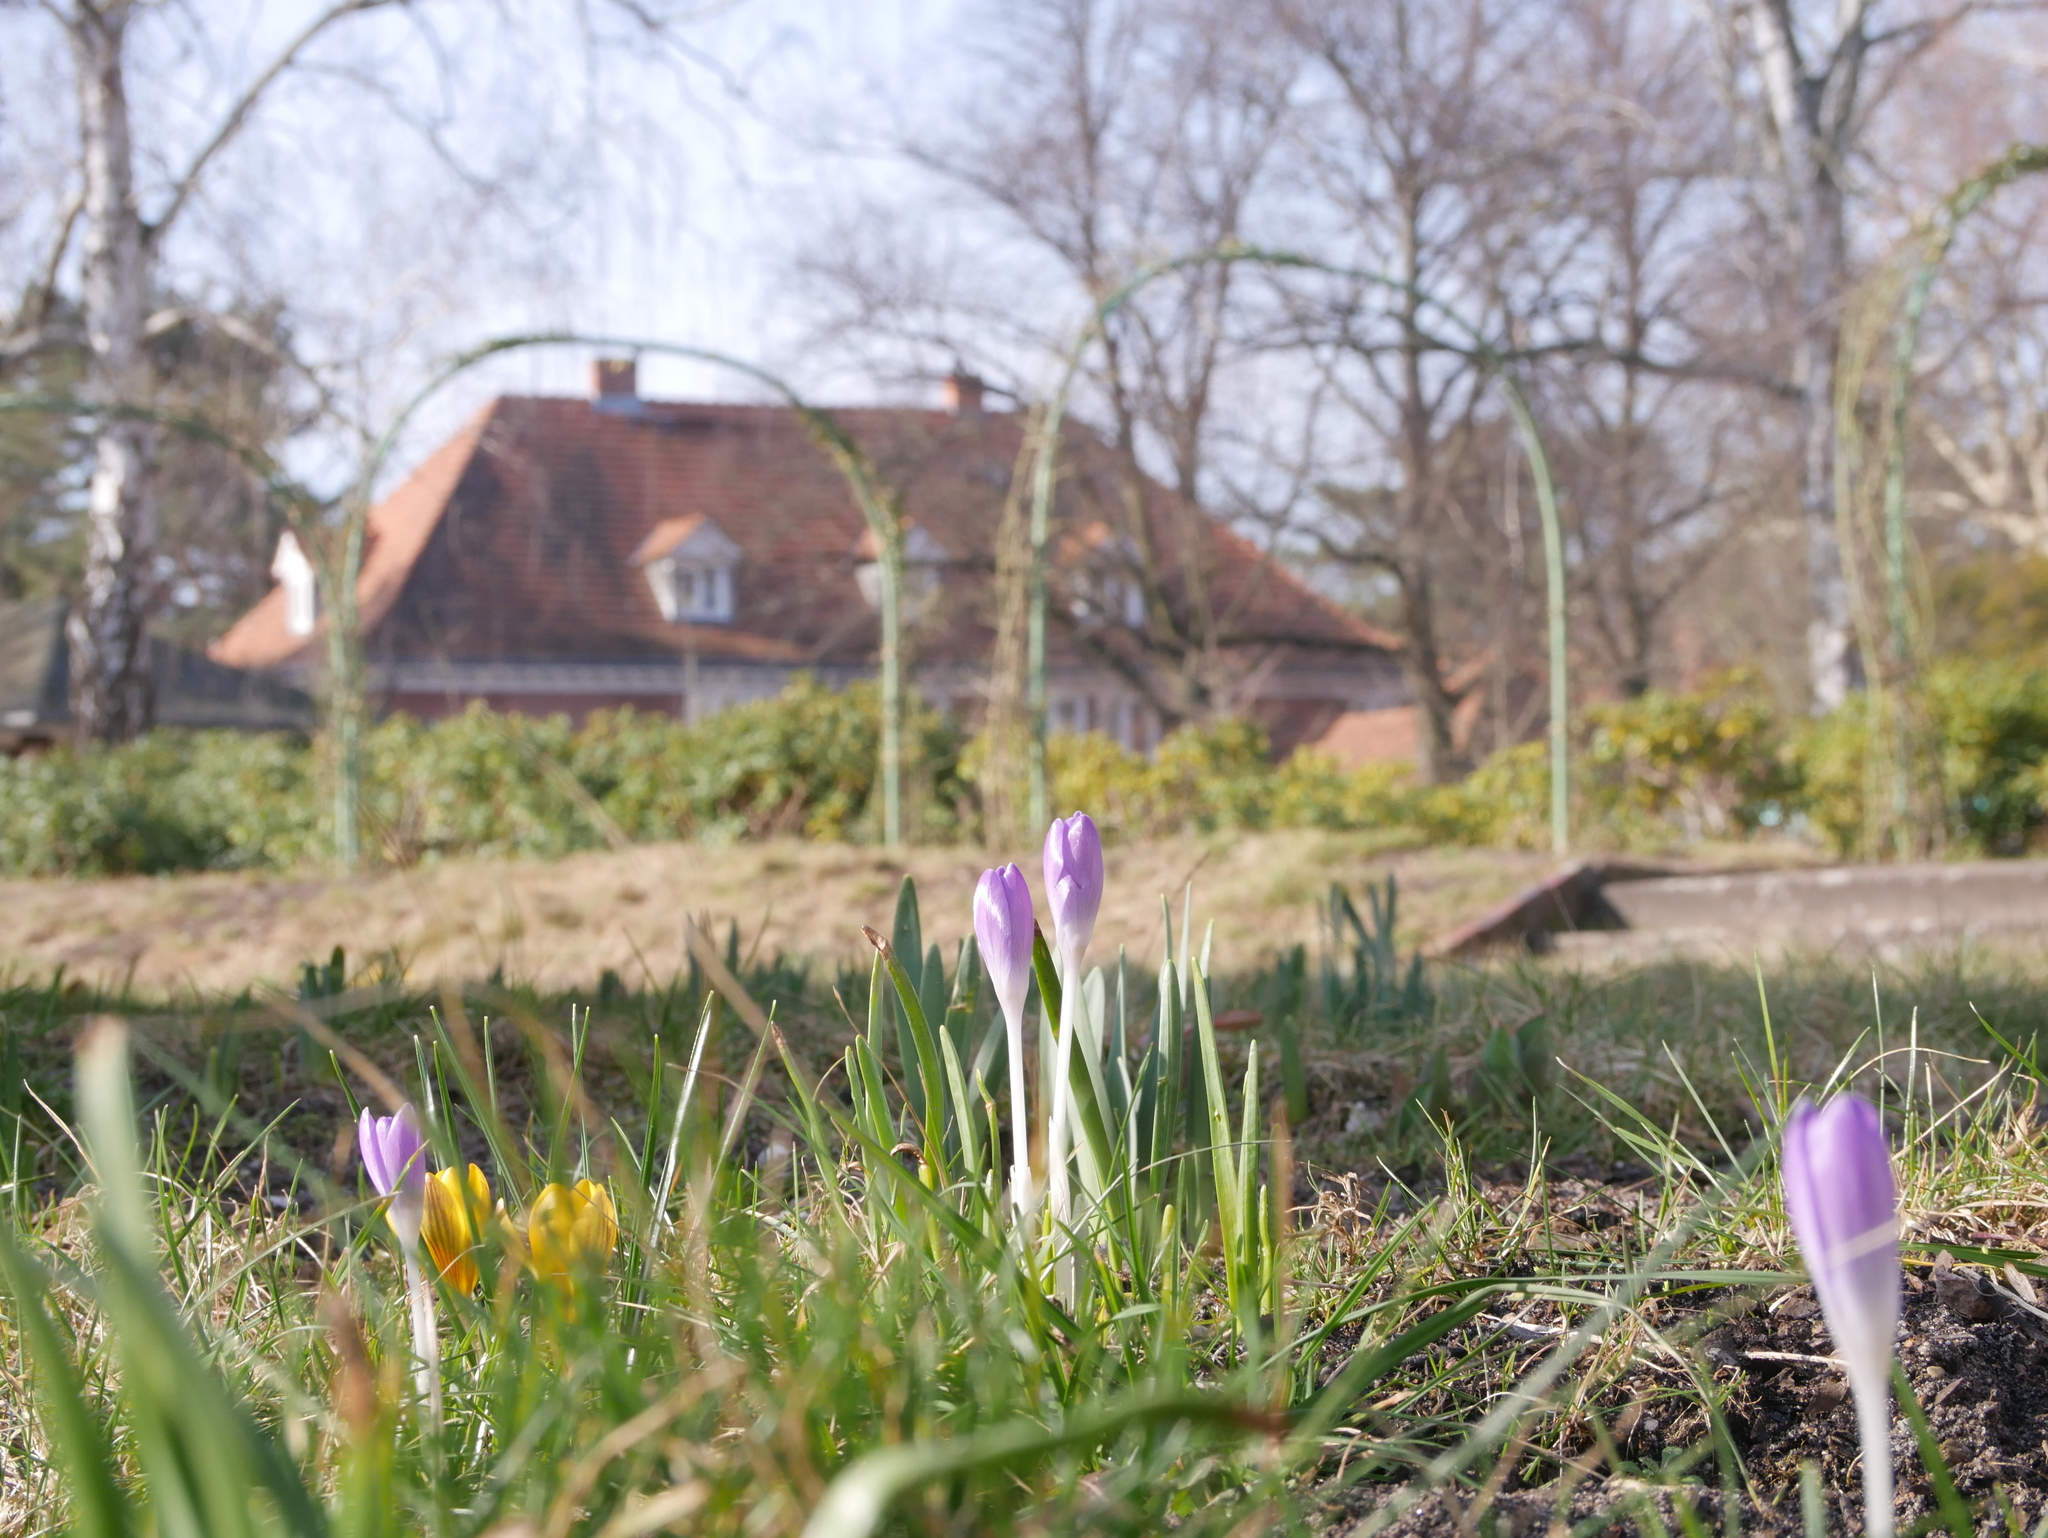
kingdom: Plantae
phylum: Tracheophyta
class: Liliopsida
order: Asparagales
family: Iridaceae
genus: Crocus
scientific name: Crocus tommasinianus
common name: Early crocus
